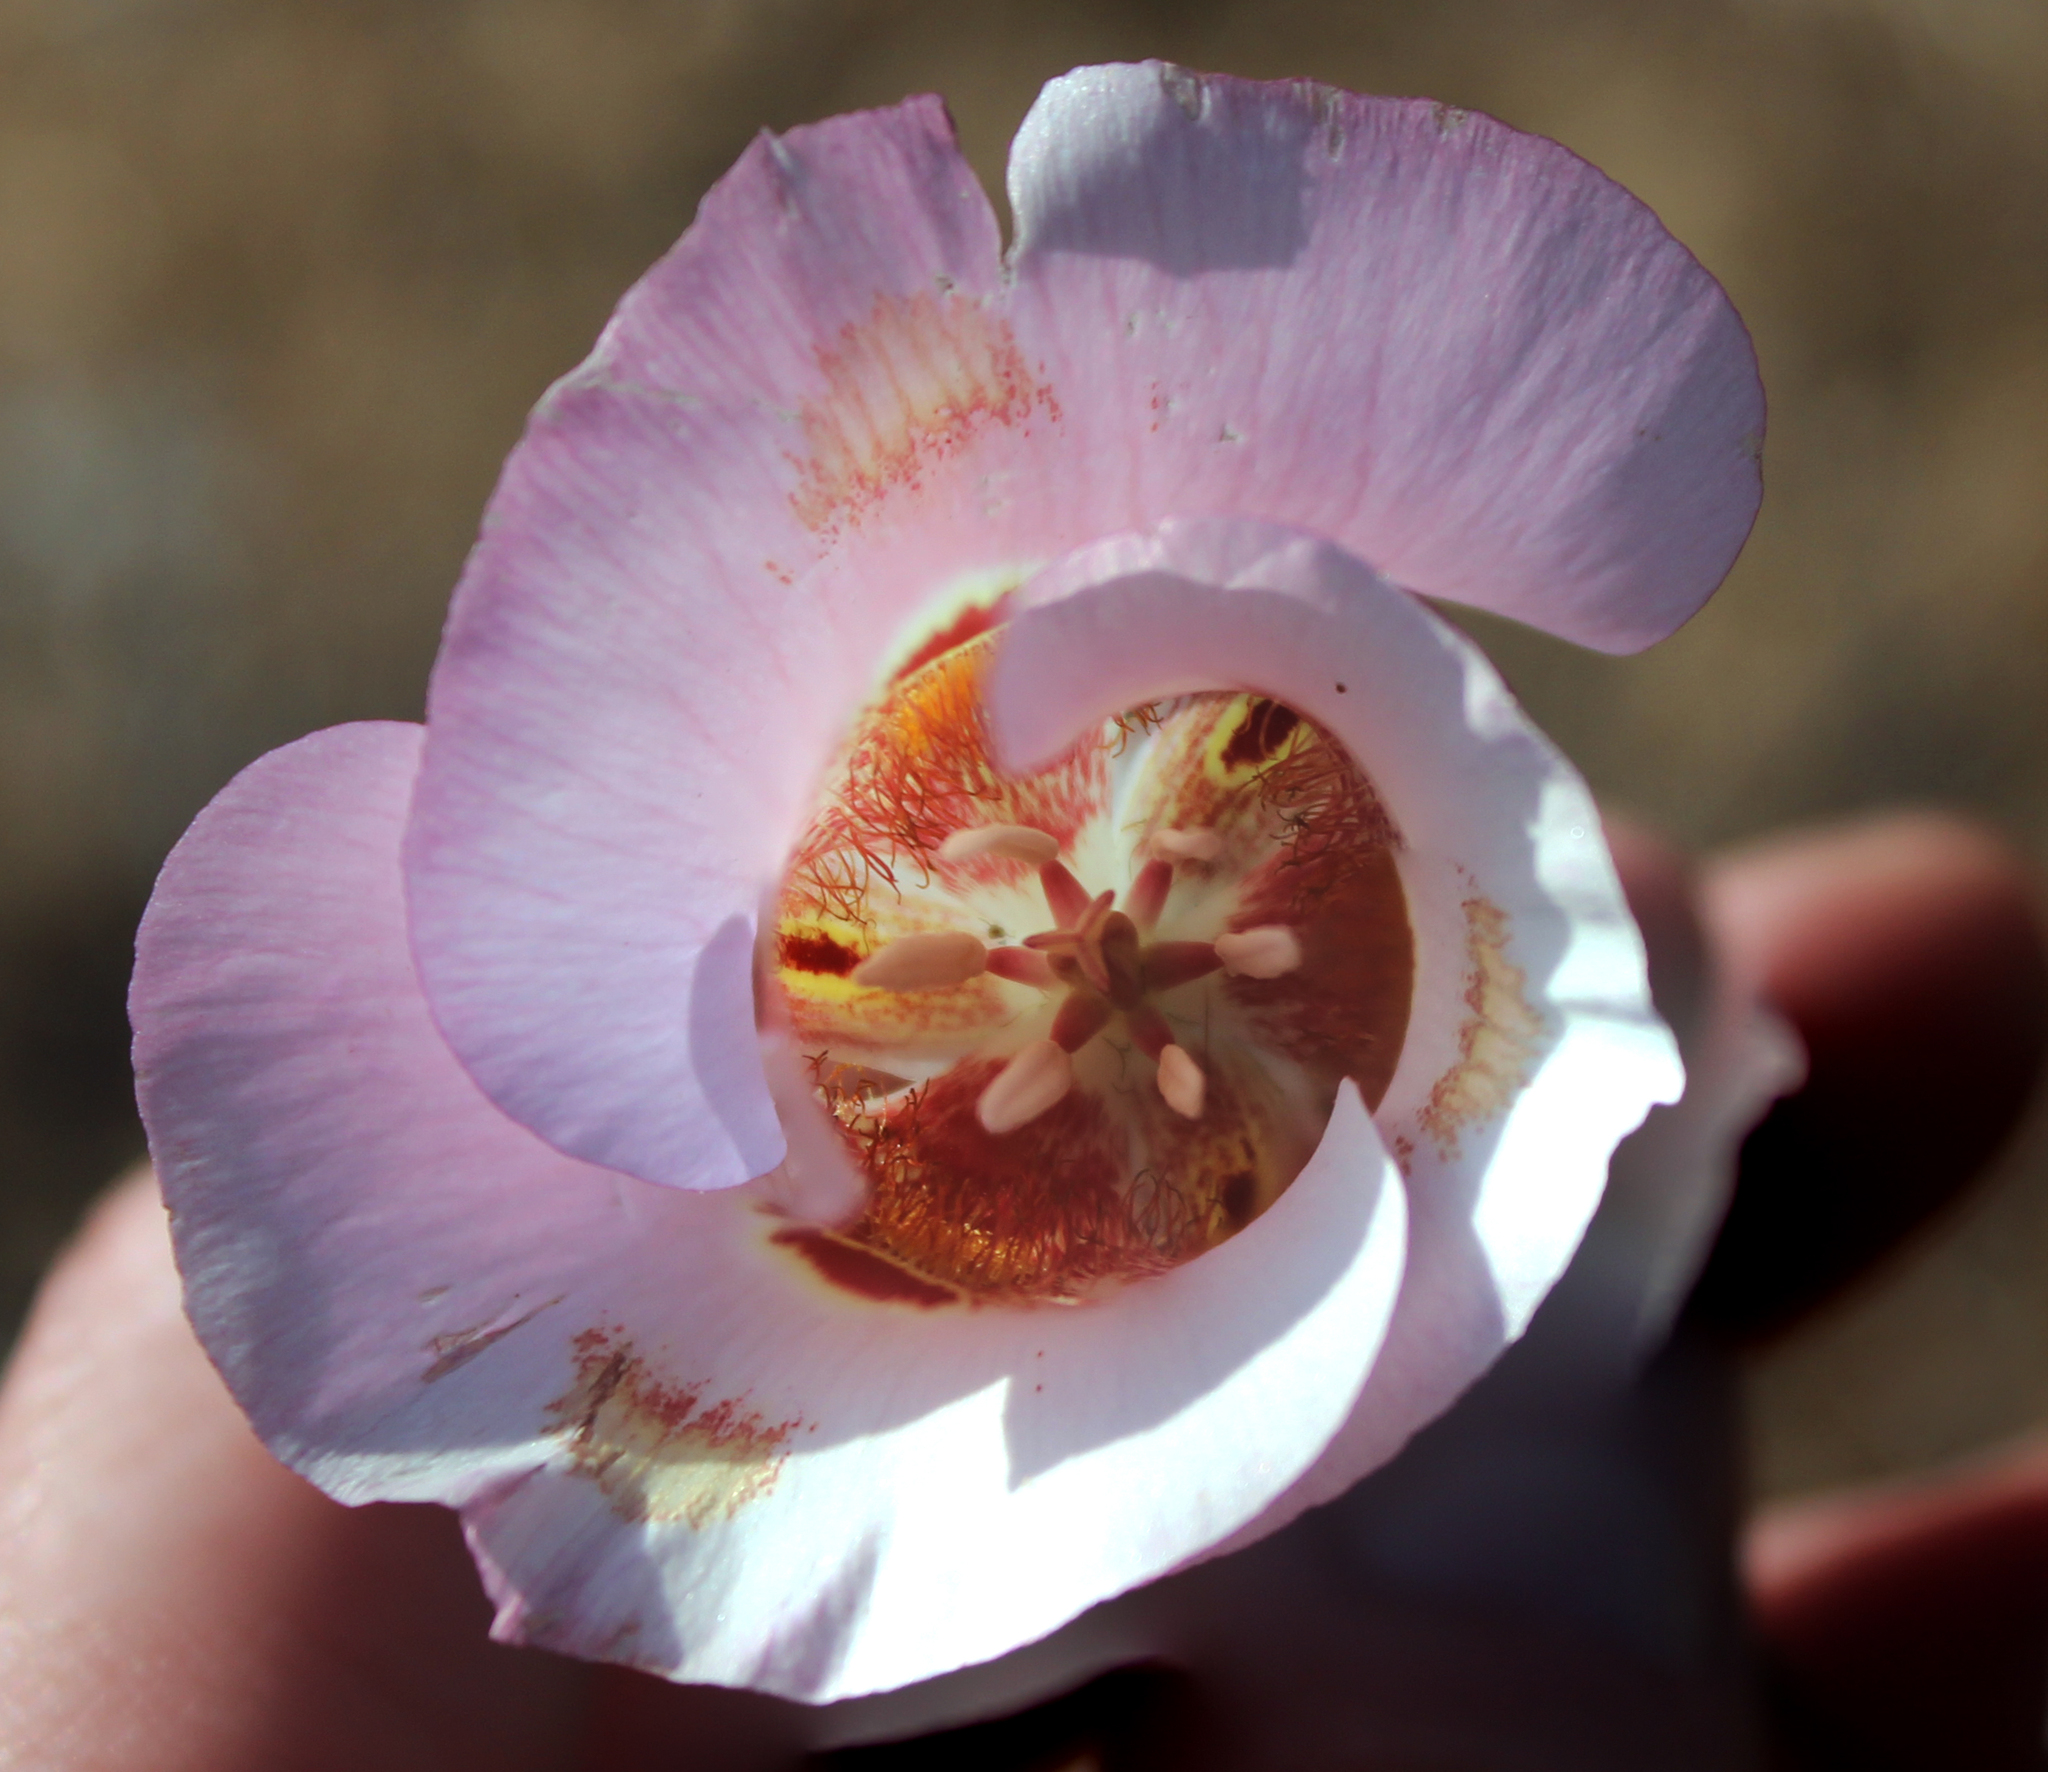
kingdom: Plantae
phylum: Tracheophyta
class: Liliopsida
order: Liliales
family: Liliaceae
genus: Calochortus
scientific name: Calochortus venustus
